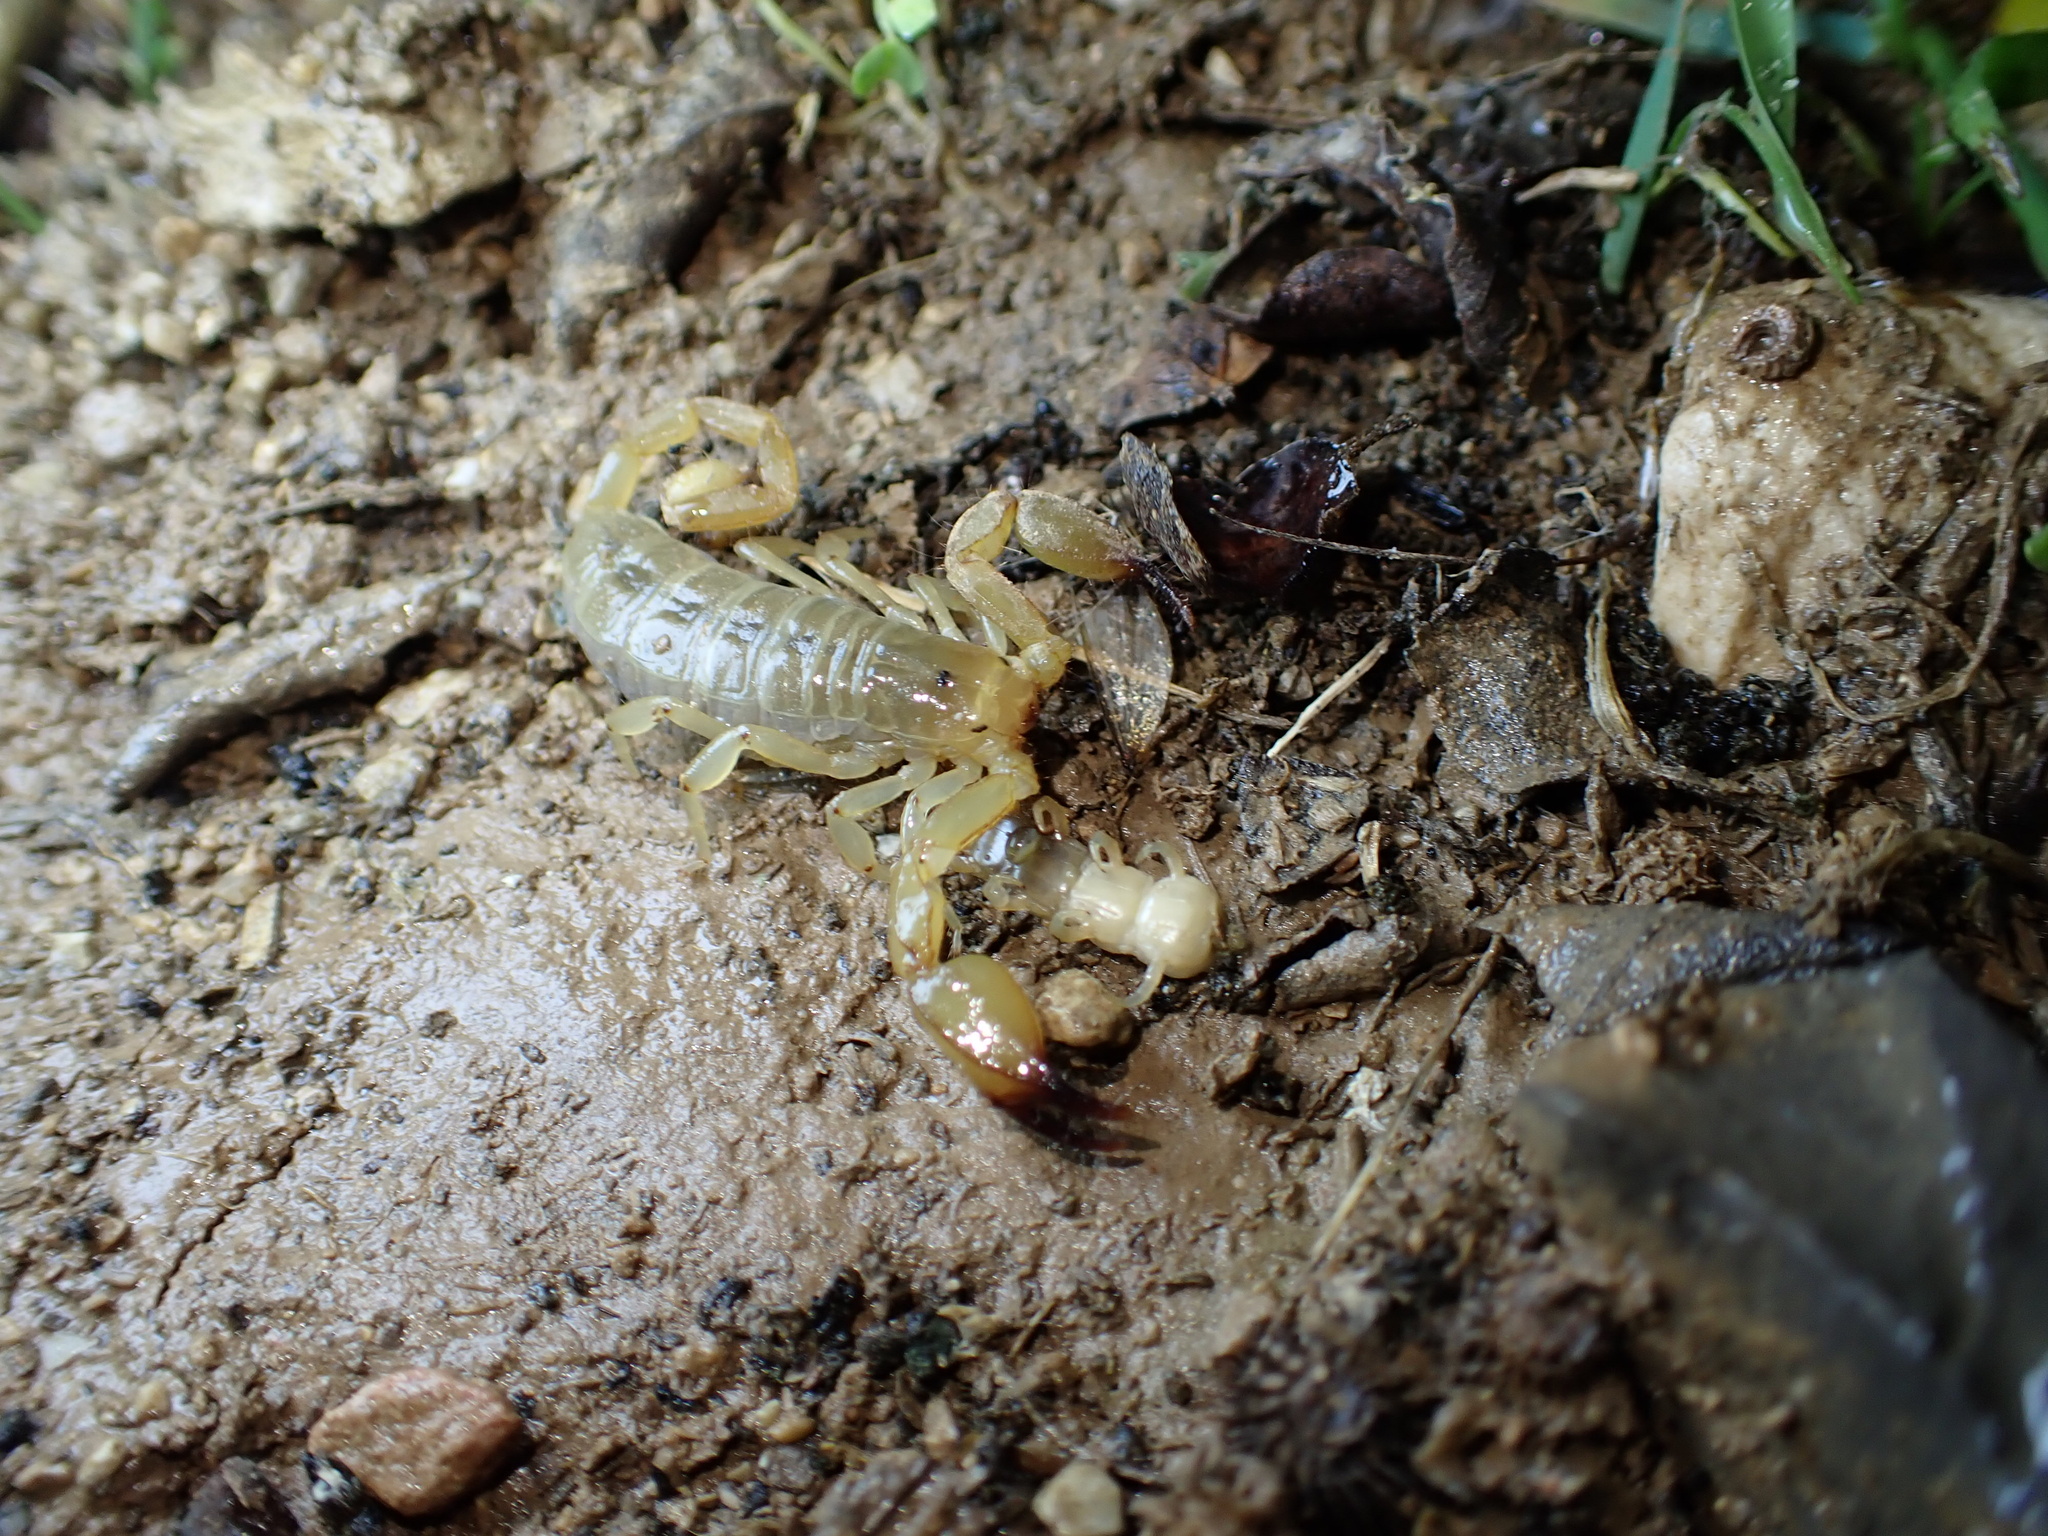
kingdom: Animalia
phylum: Arthropoda
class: Arachnida
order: Scorpiones
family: Hemiscorpiidae
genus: Hemiscorpius
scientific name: Hemiscorpius lepturus
